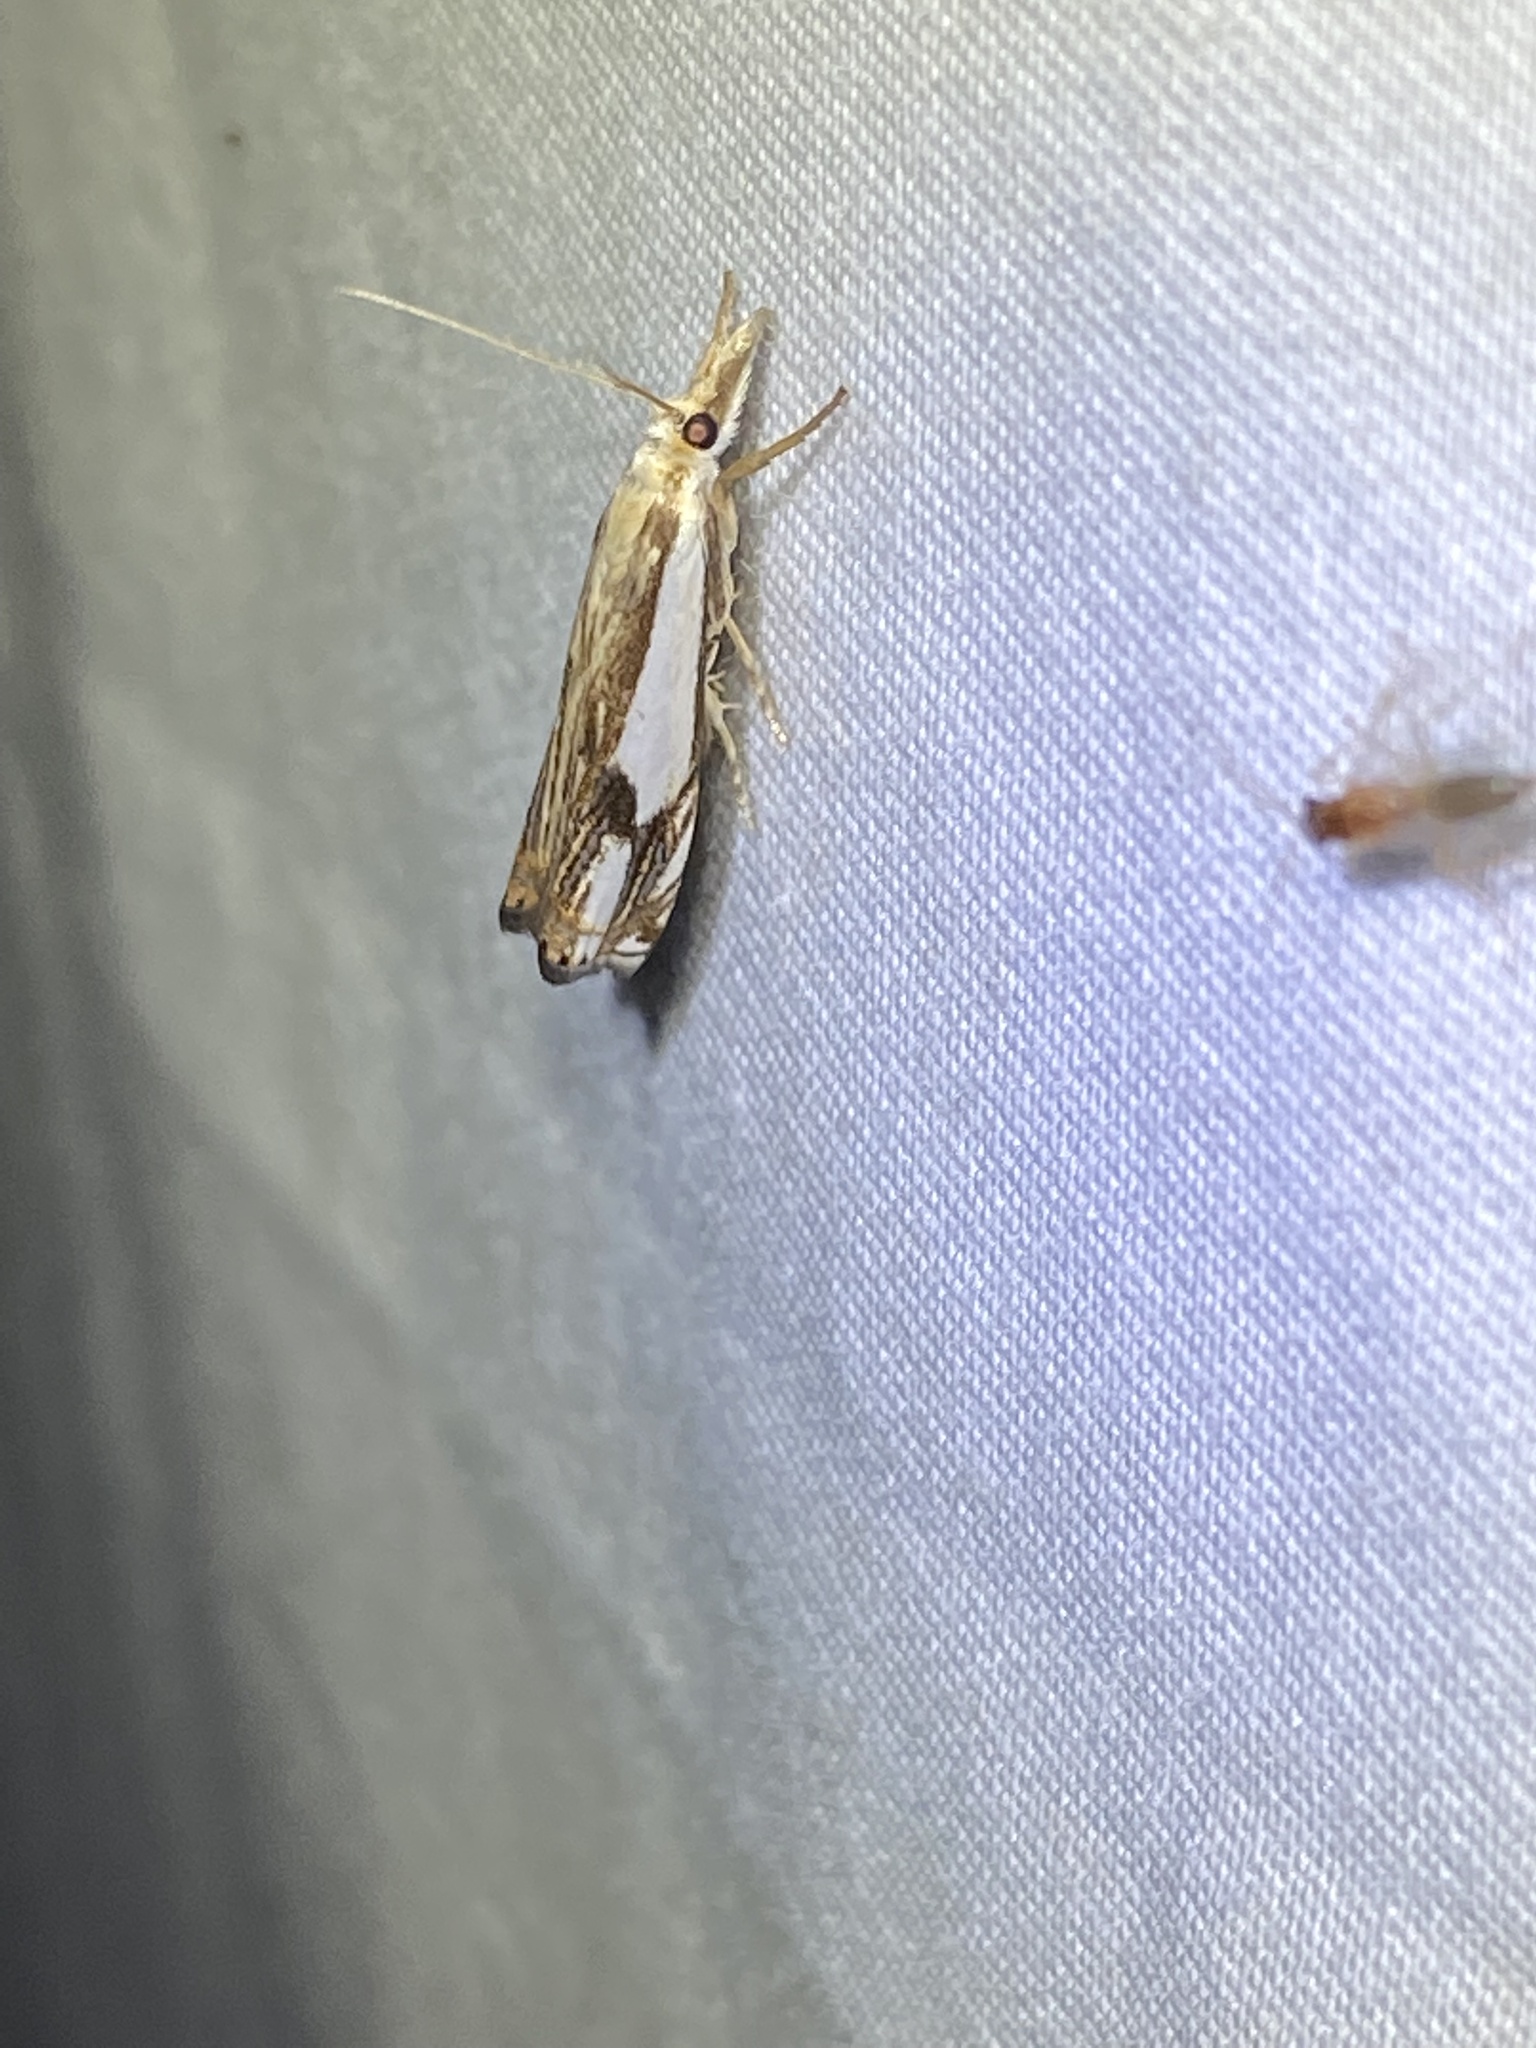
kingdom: Animalia
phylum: Arthropoda
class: Insecta
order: Lepidoptera
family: Crambidae
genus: Crambus
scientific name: Crambus agitatellus
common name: Double-banded grass-veneer
